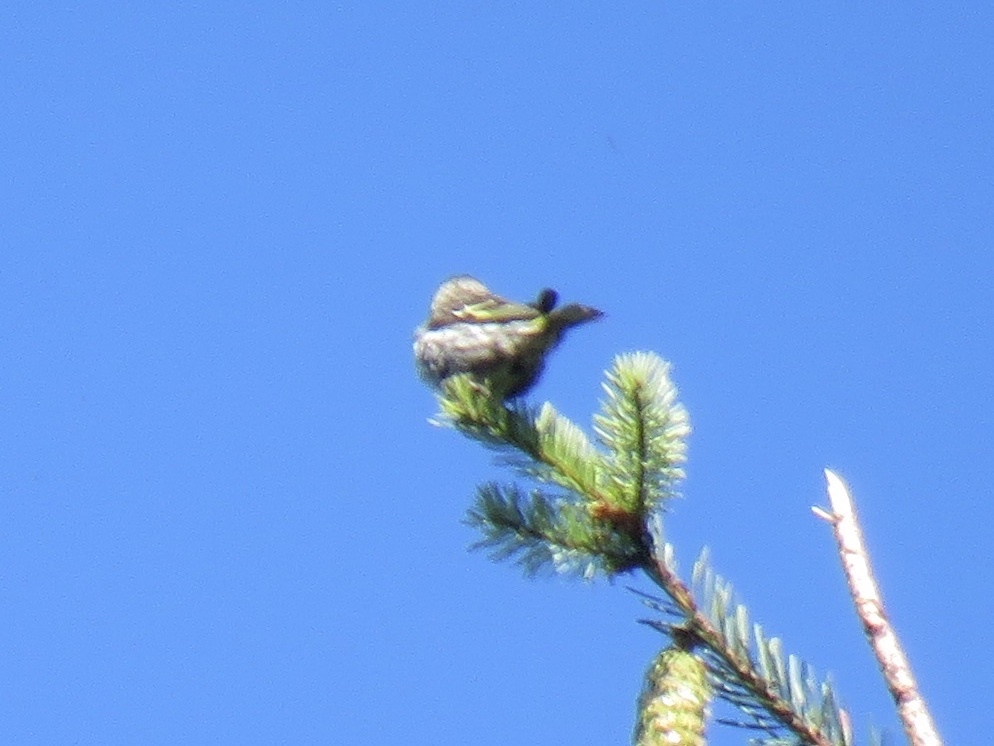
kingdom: Animalia
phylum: Chordata
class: Aves
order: Passeriformes
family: Fringillidae
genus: Spinus
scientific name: Spinus pinus
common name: Pine siskin
